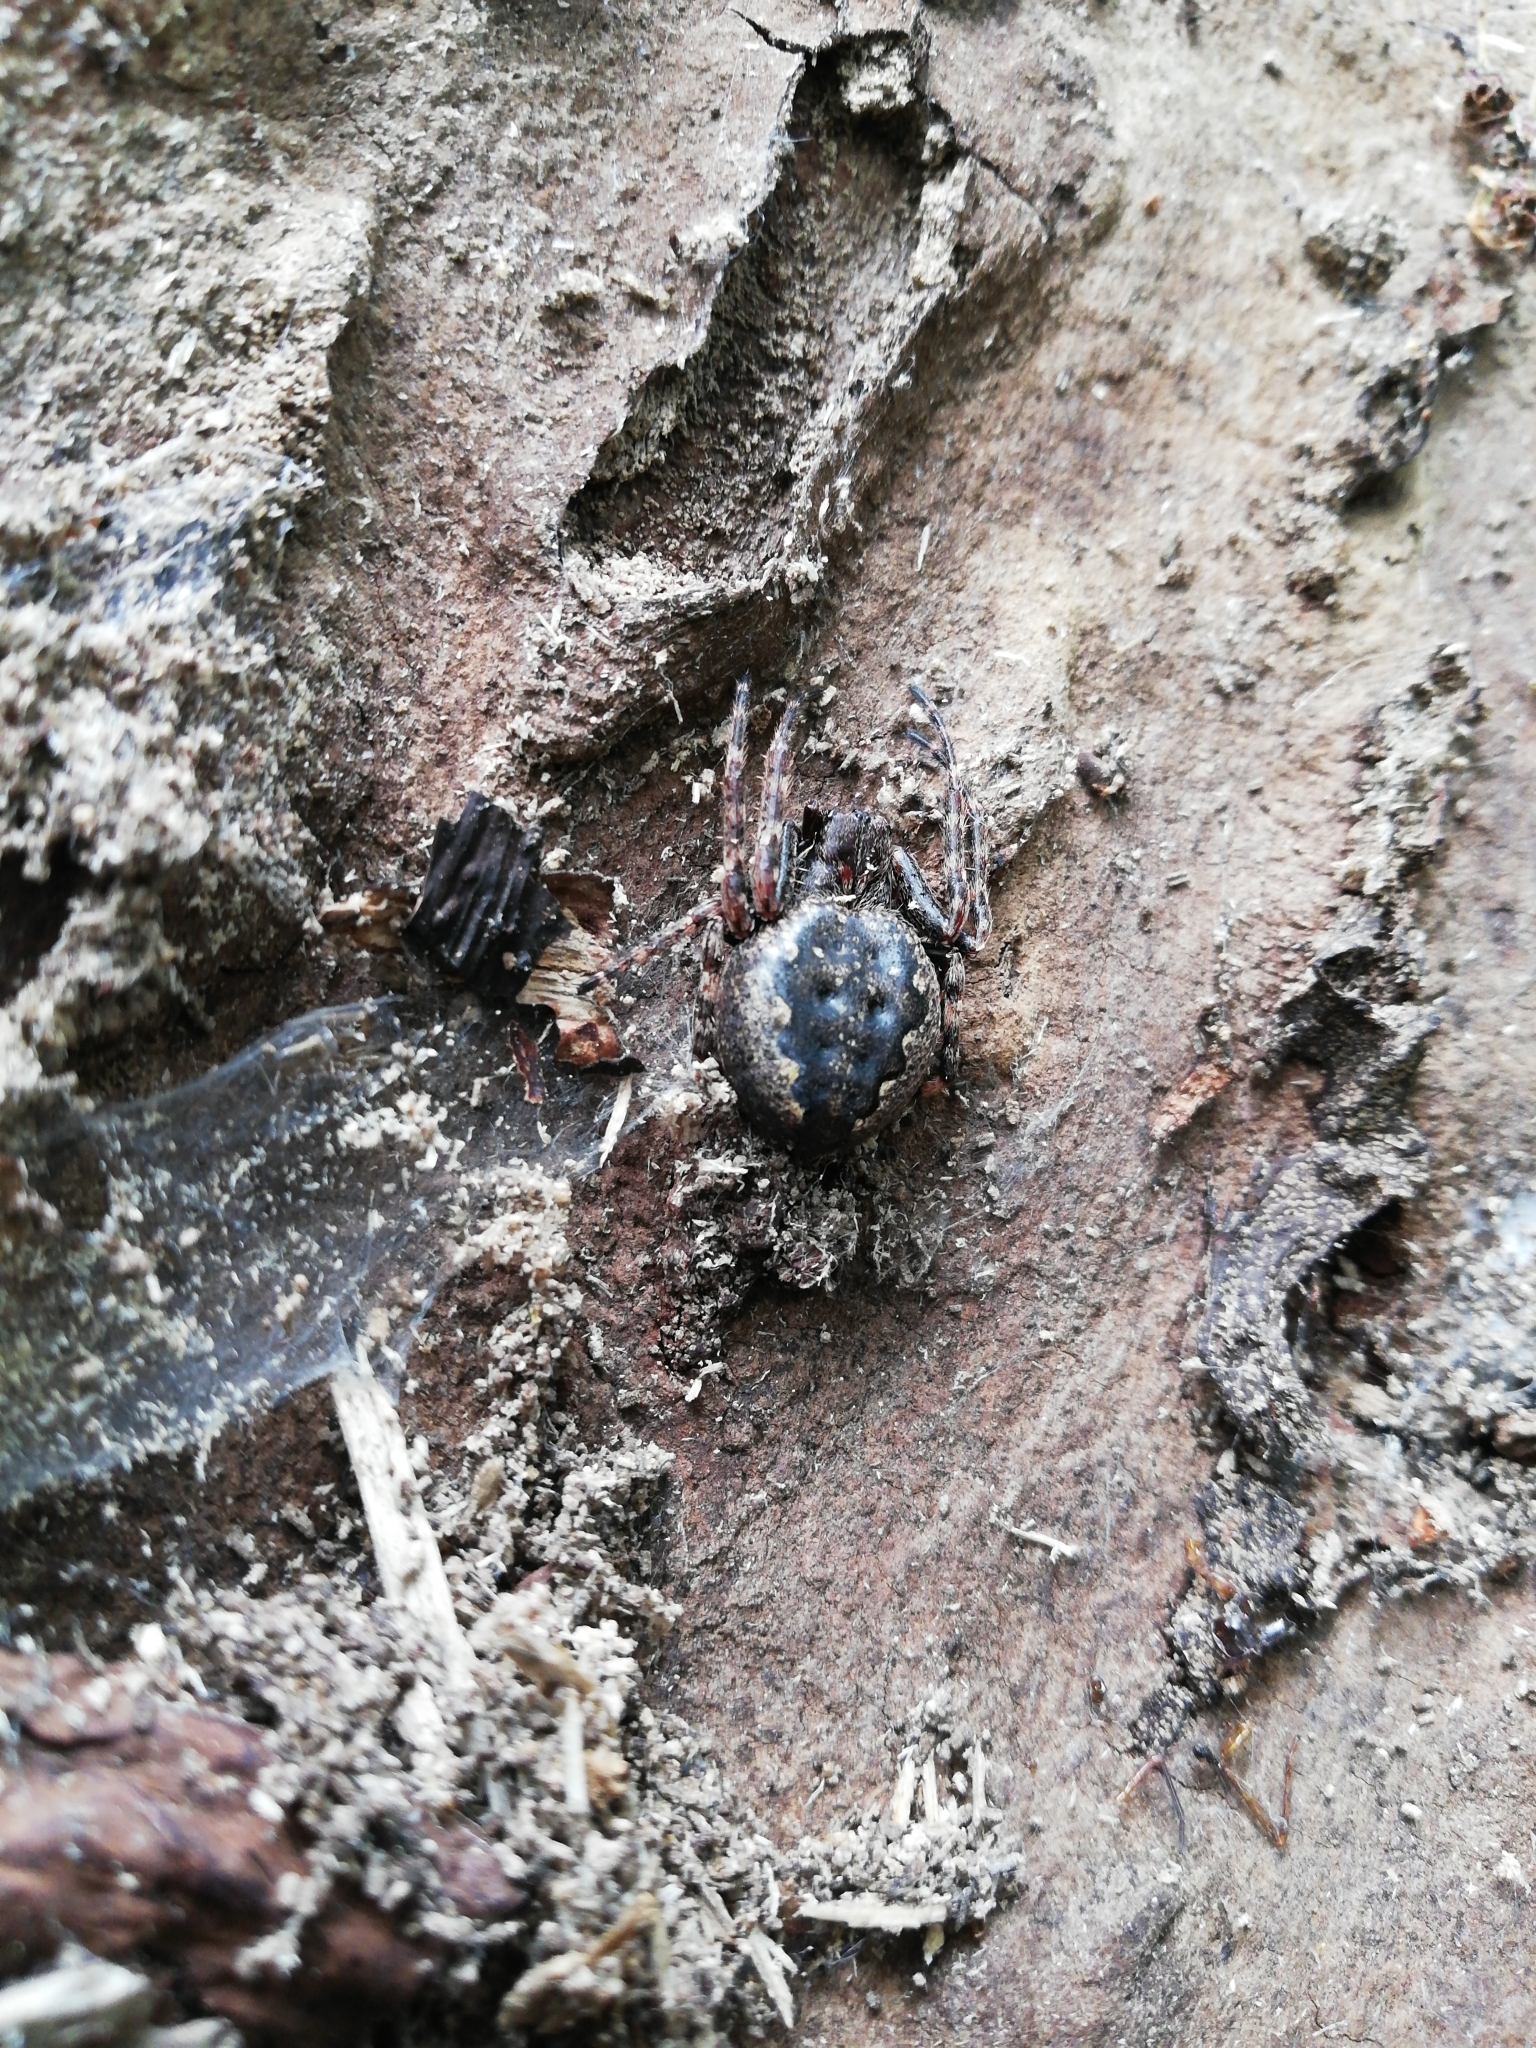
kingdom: Animalia
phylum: Arthropoda
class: Arachnida
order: Araneae
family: Araneidae
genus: Nuctenea
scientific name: Nuctenea umbratica
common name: Toad spider
